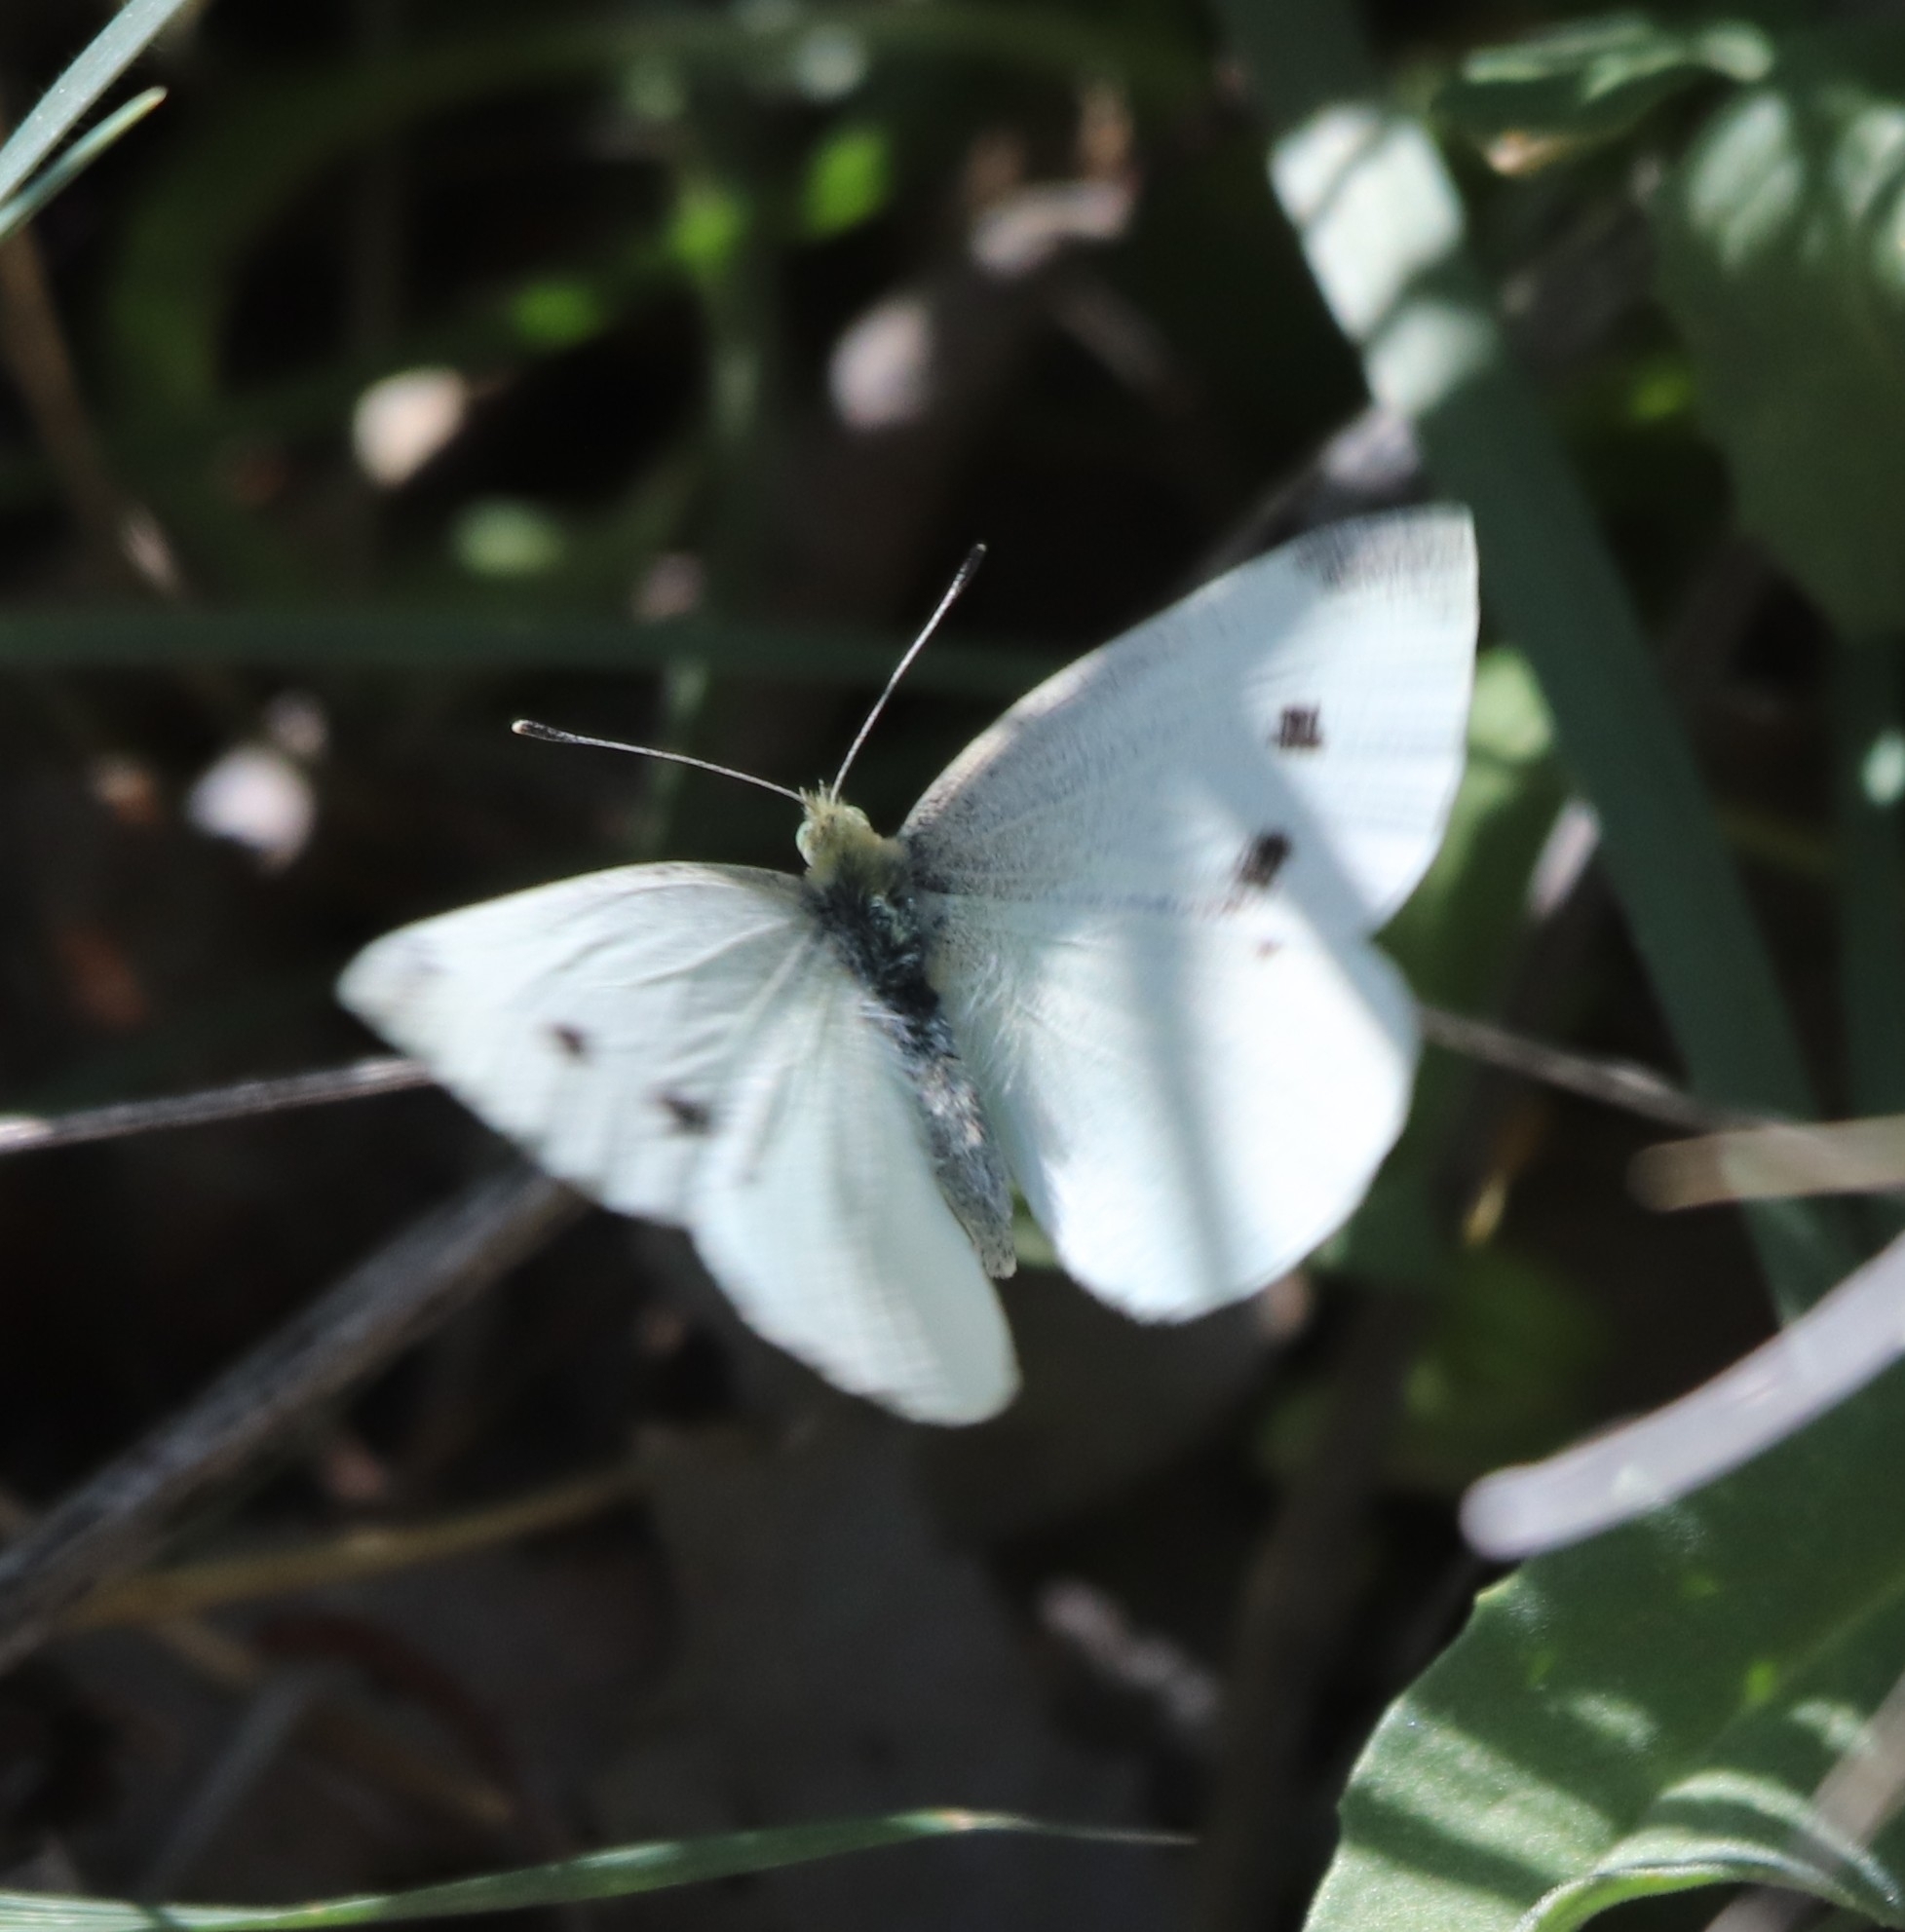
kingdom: Animalia
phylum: Arthropoda
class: Insecta
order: Lepidoptera
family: Pieridae
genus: Pieris
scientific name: Pieris rapae
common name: Small white
